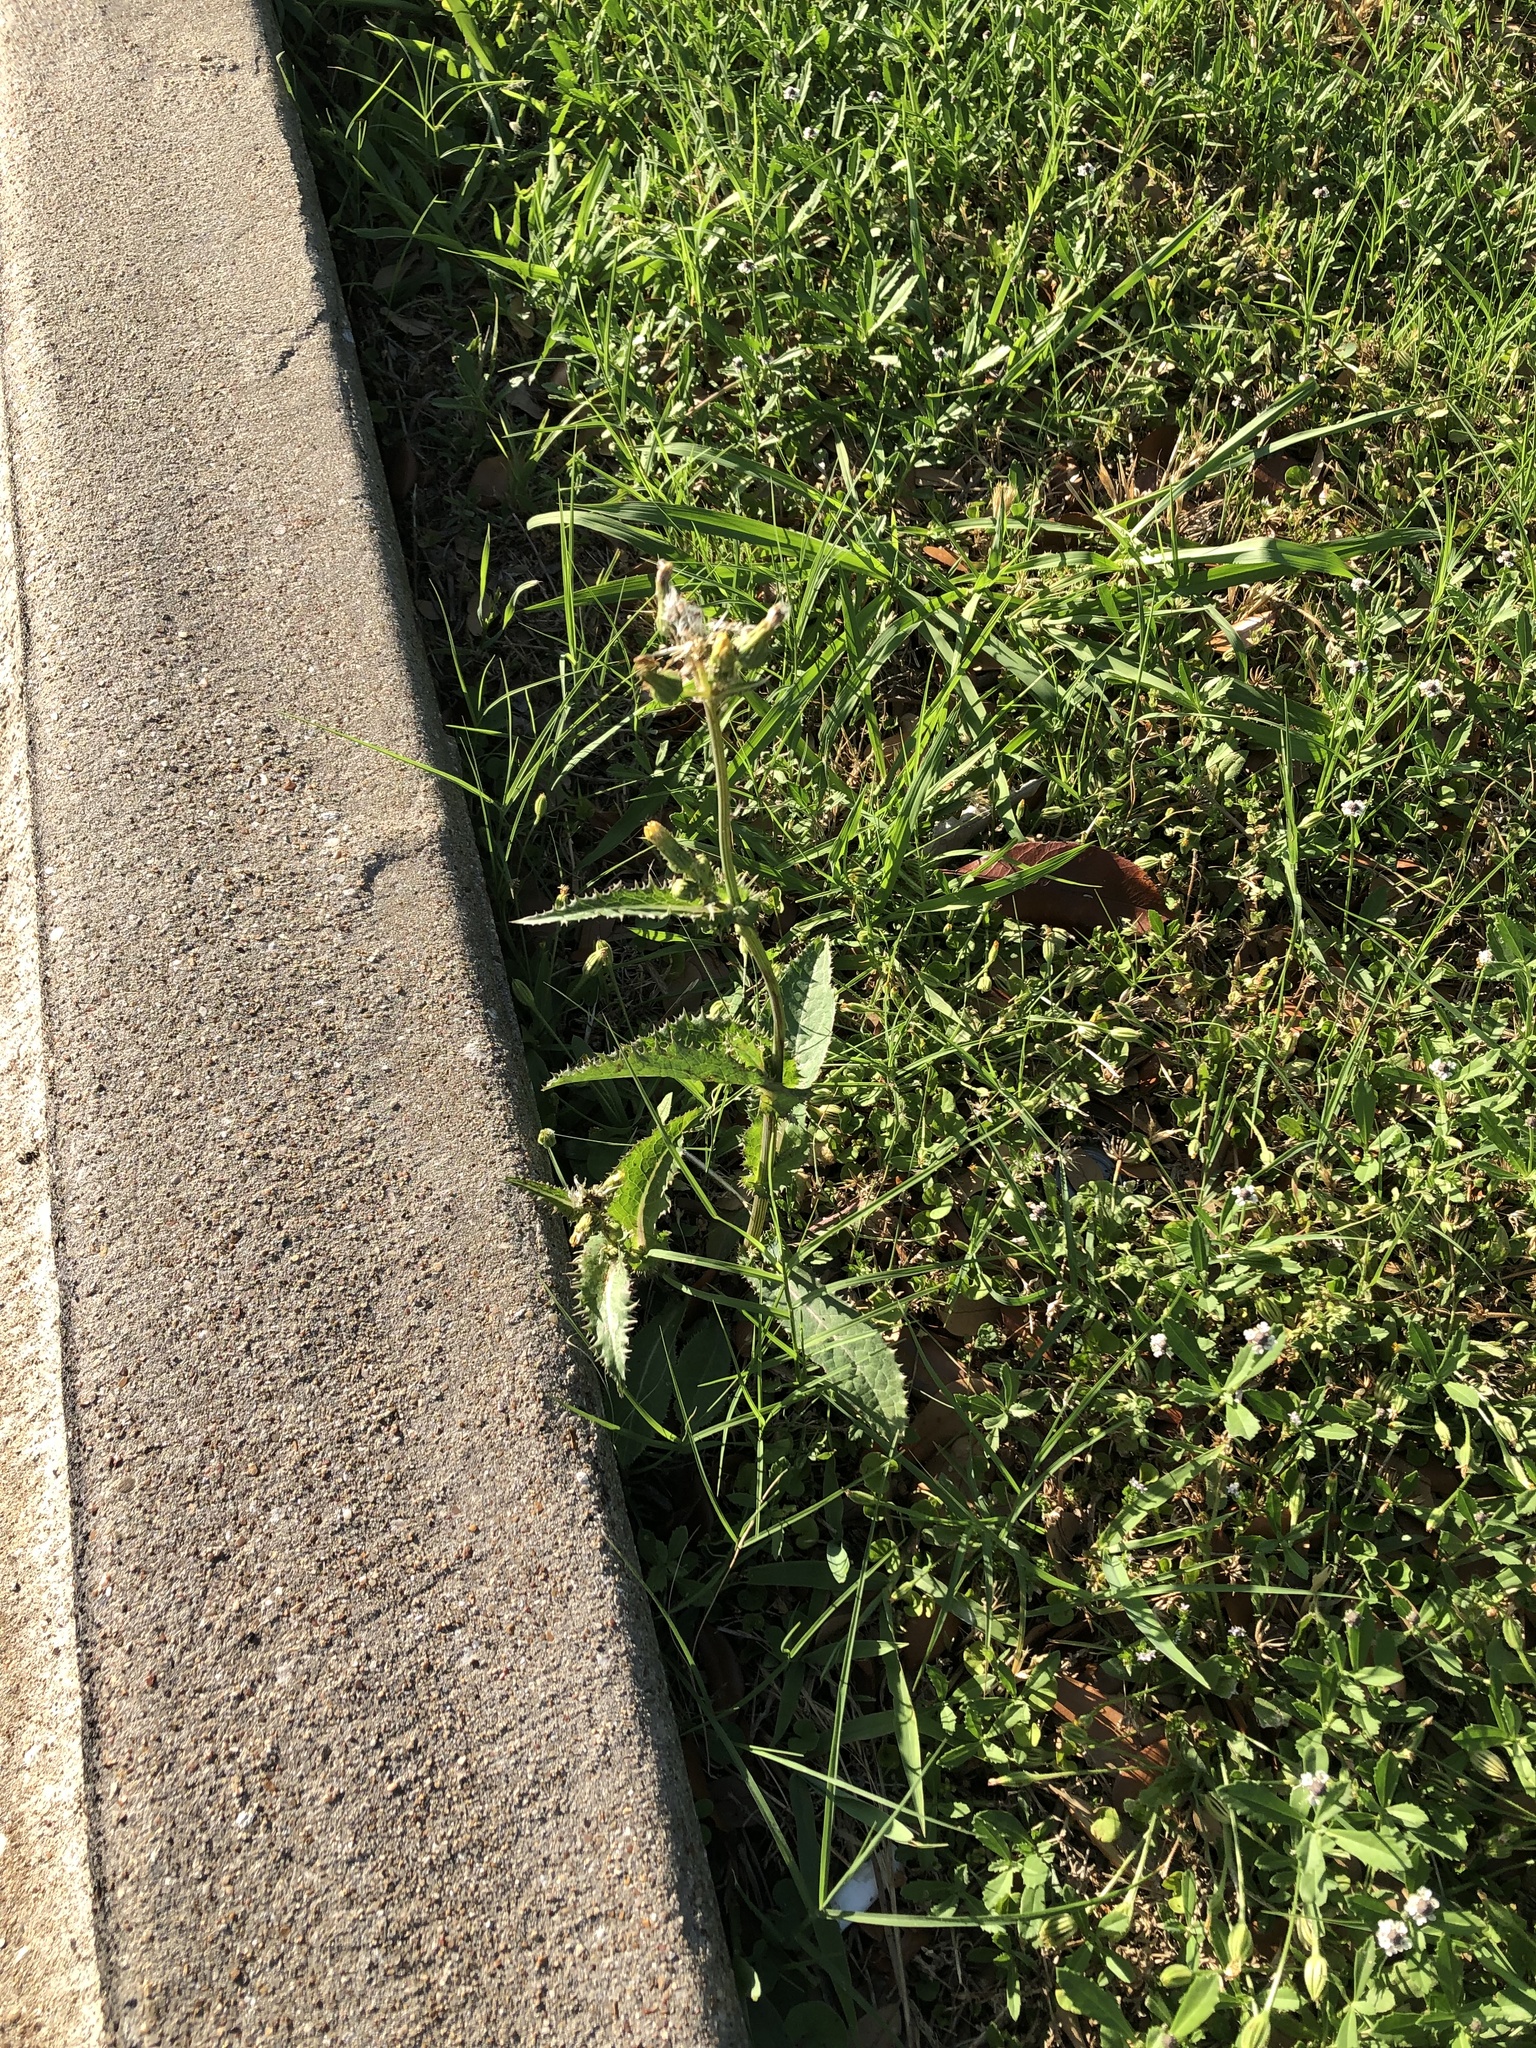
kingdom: Plantae
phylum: Tracheophyta
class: Magnoliopsida
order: Asterales
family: Asteraceae
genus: Sonchus
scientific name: Sonchus asper
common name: Prickly sow-thistle
